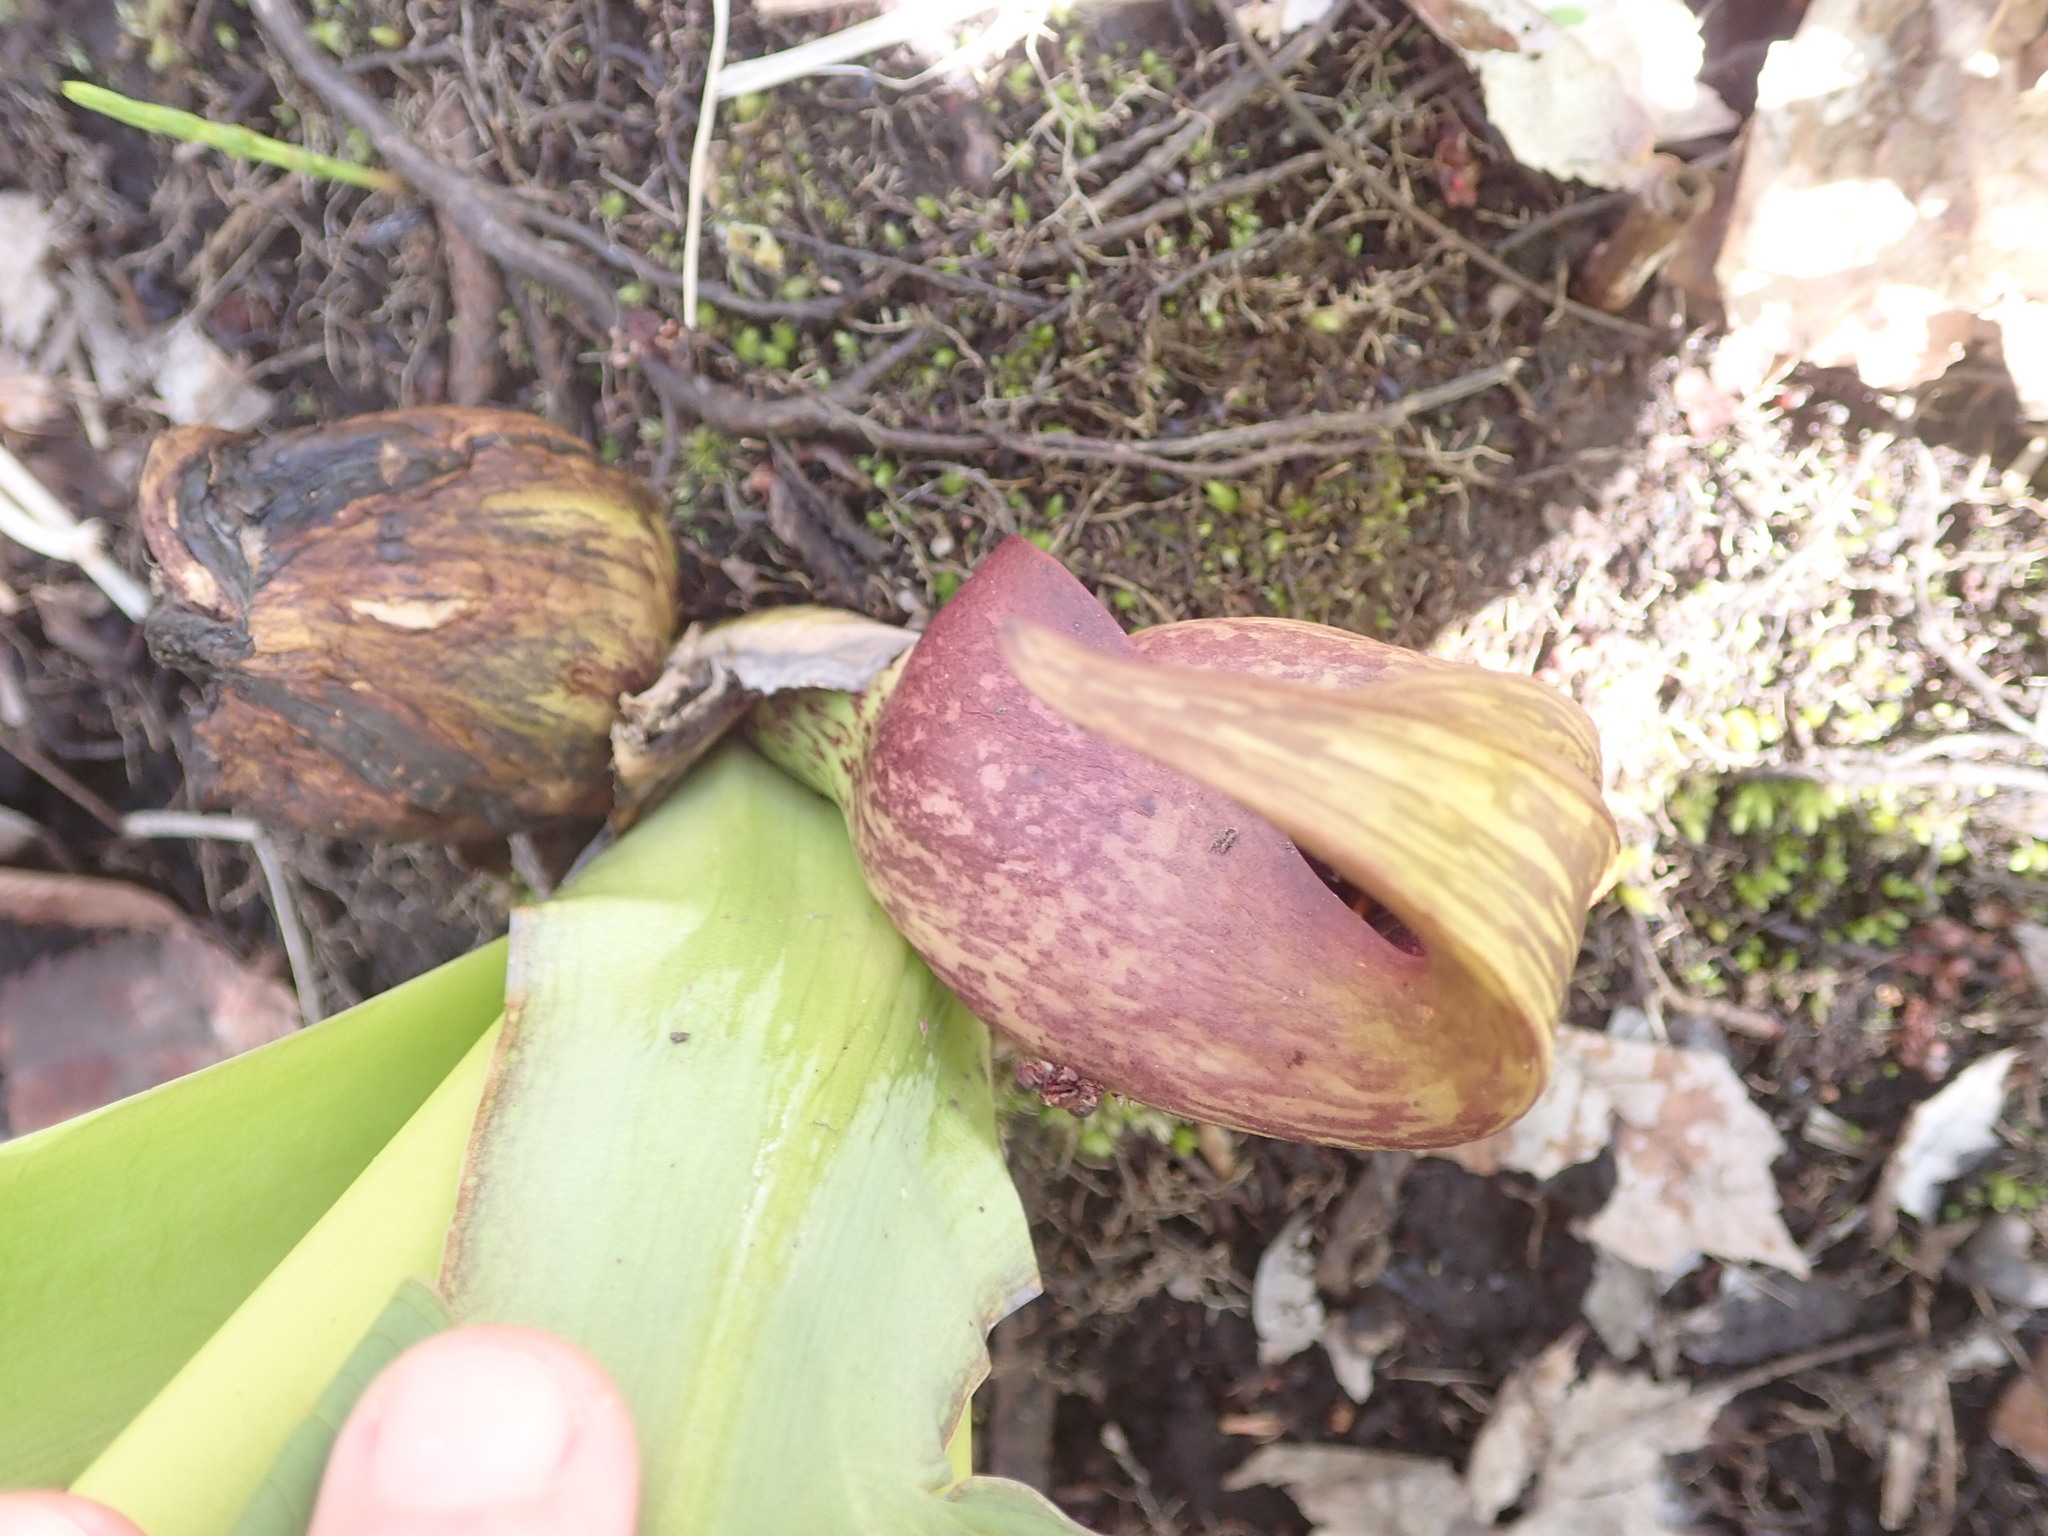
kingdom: Plantae
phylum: Tracheophyta
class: Liliopsida
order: Alismatales
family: Araceae
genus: Symplocarpus
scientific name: Symplocarpus foetidus
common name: Eastern skunk cabbage
